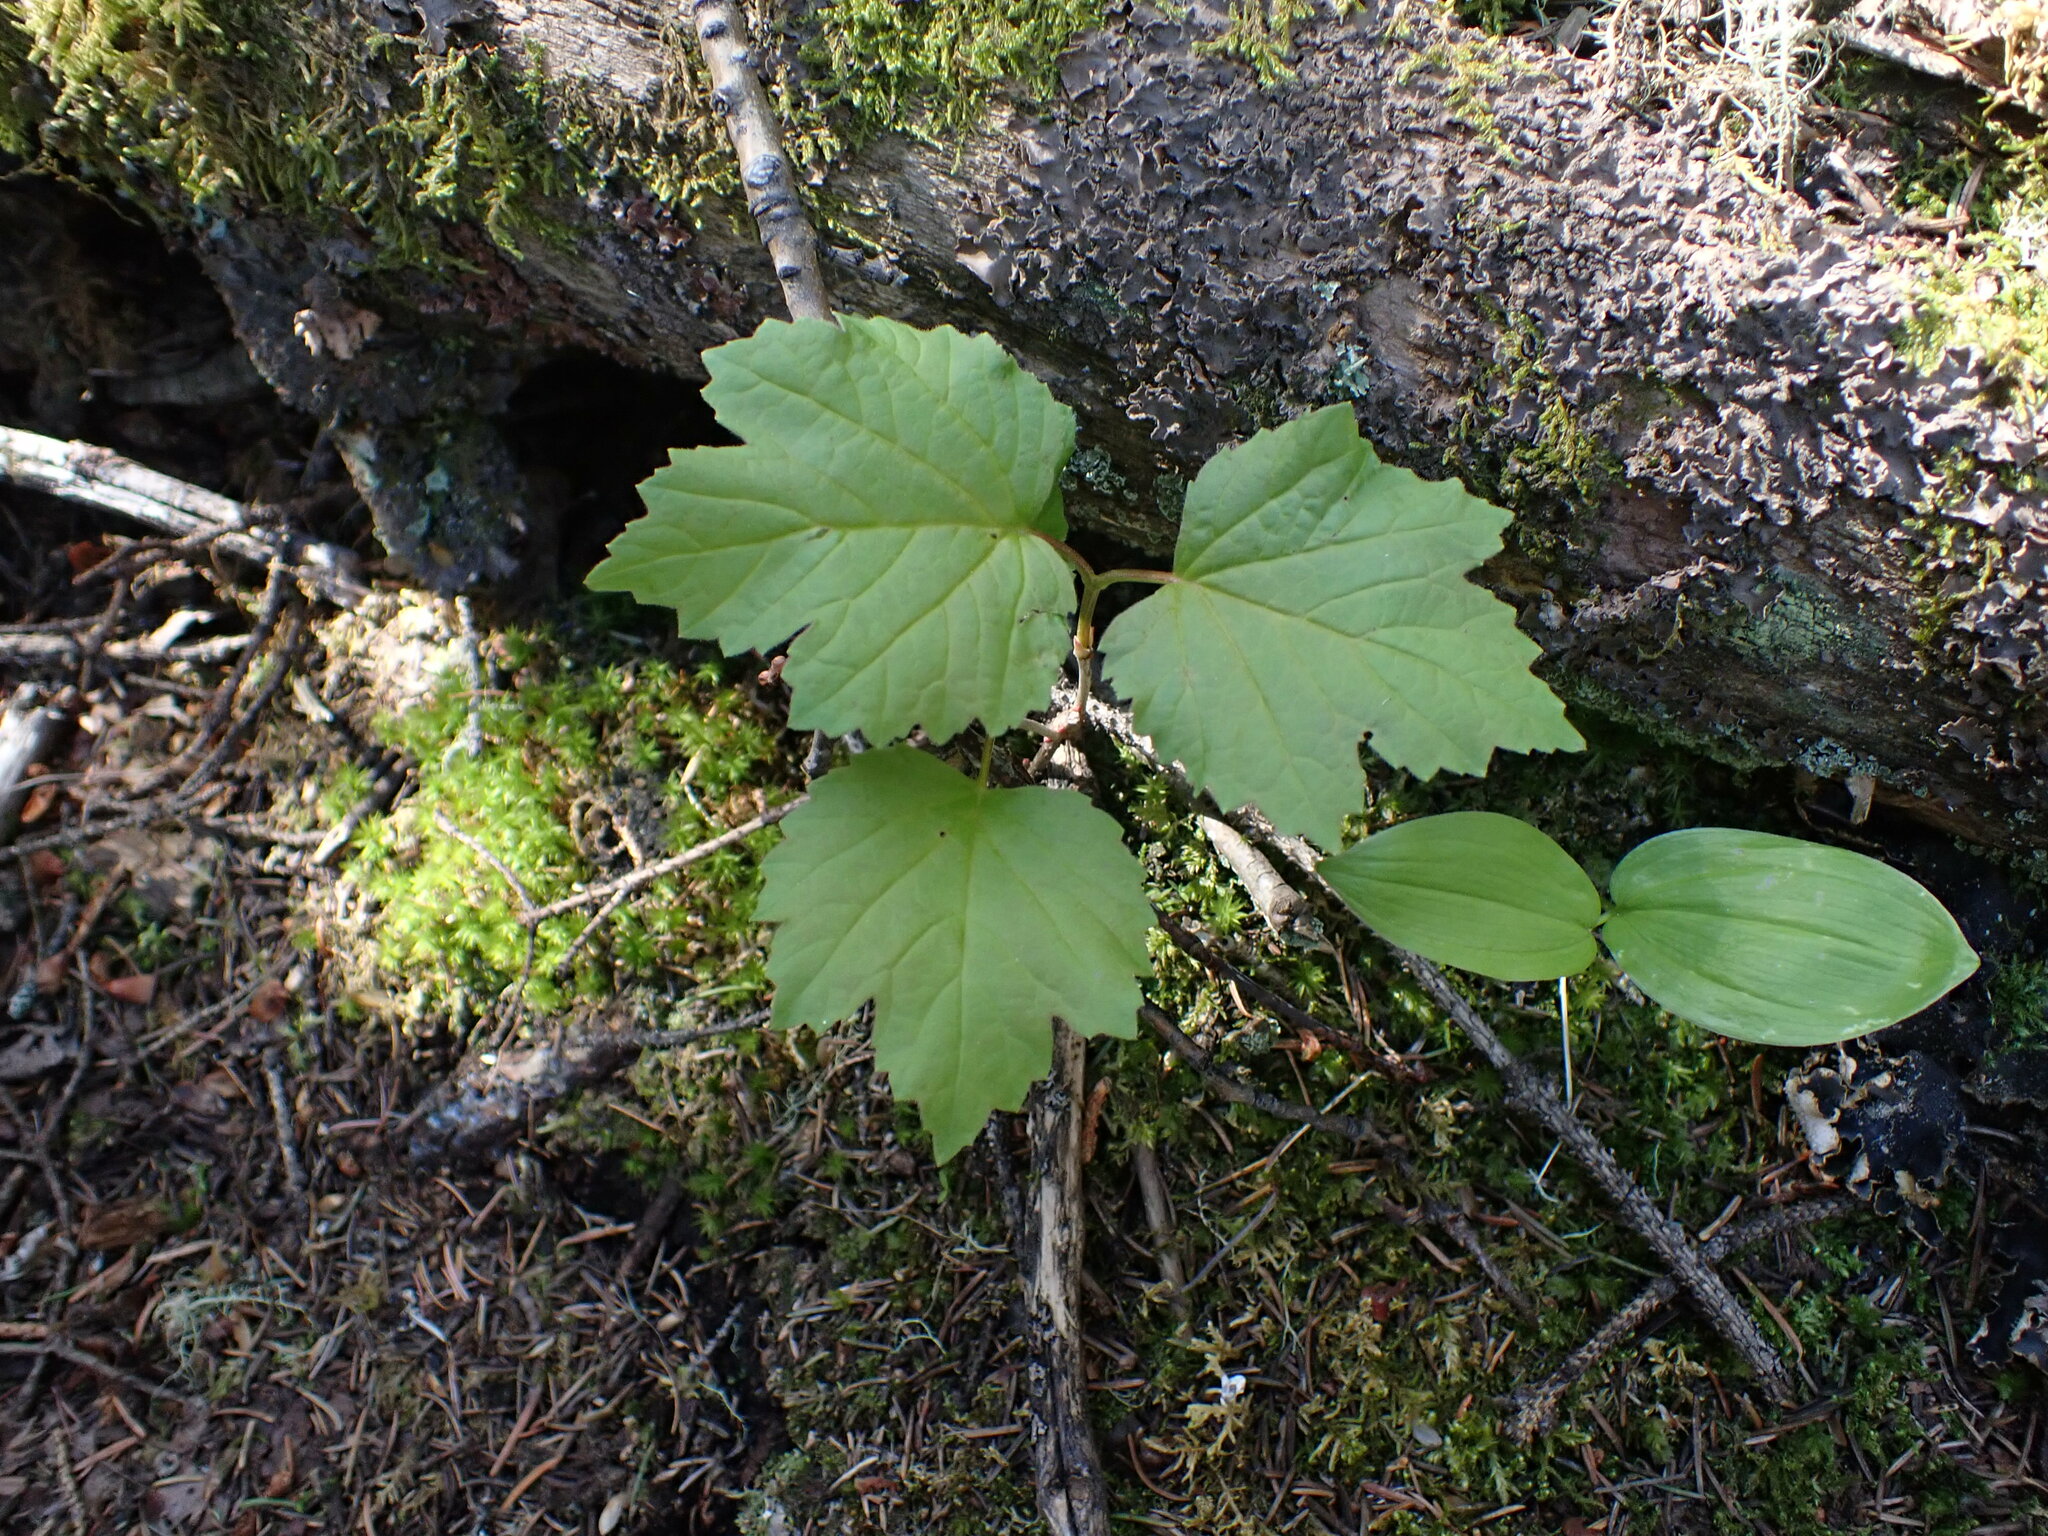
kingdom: Plantae
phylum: Tracheophyta
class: Magnoliopsida
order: Dipsacales
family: Viburnaceae
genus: Viburnum
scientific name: Viburnum edule
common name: Mooseberry
